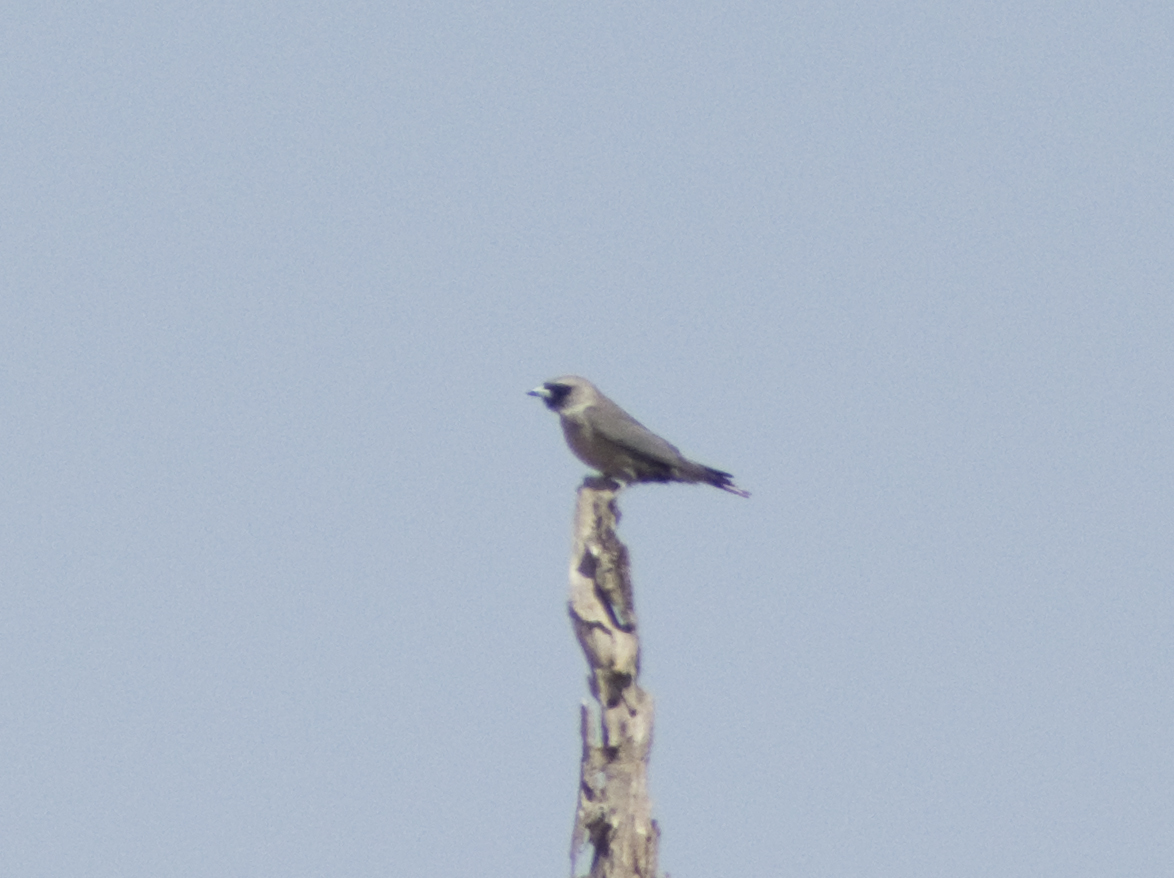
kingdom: Animalia
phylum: Chordata
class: Aves
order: Passeriformes
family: Artamidae
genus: Artamus
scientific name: Artamus cinereus
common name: Black-faced woodswallow
